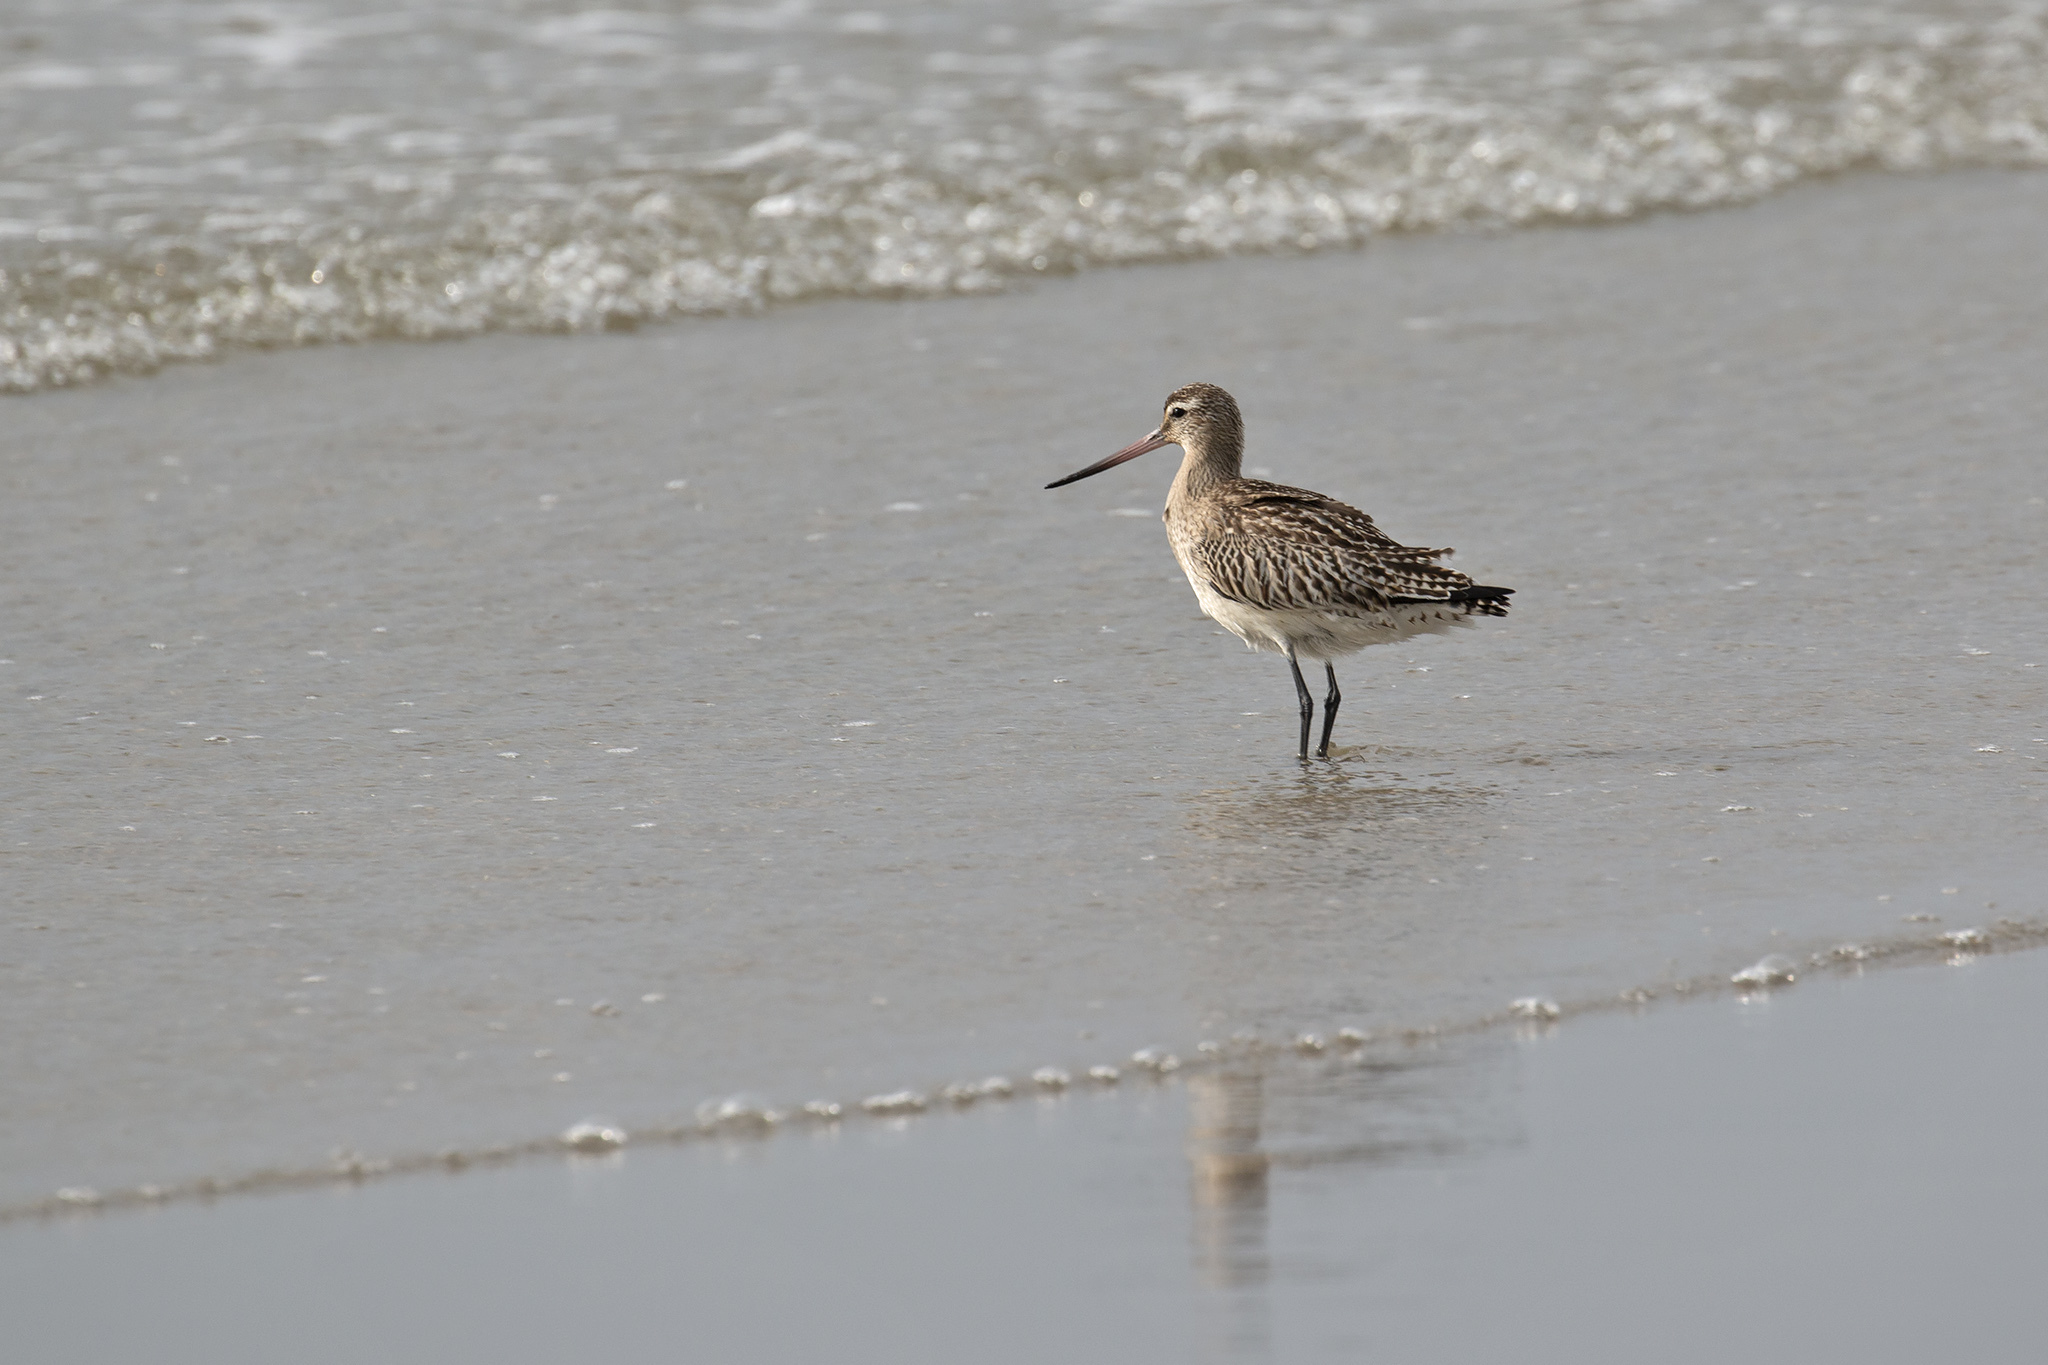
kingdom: Animalia
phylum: Chordata
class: Aves
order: Charadriiformes
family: Scolopacidae
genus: Limosa
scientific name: Limosa lapponica
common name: Bar-tailed godwit
